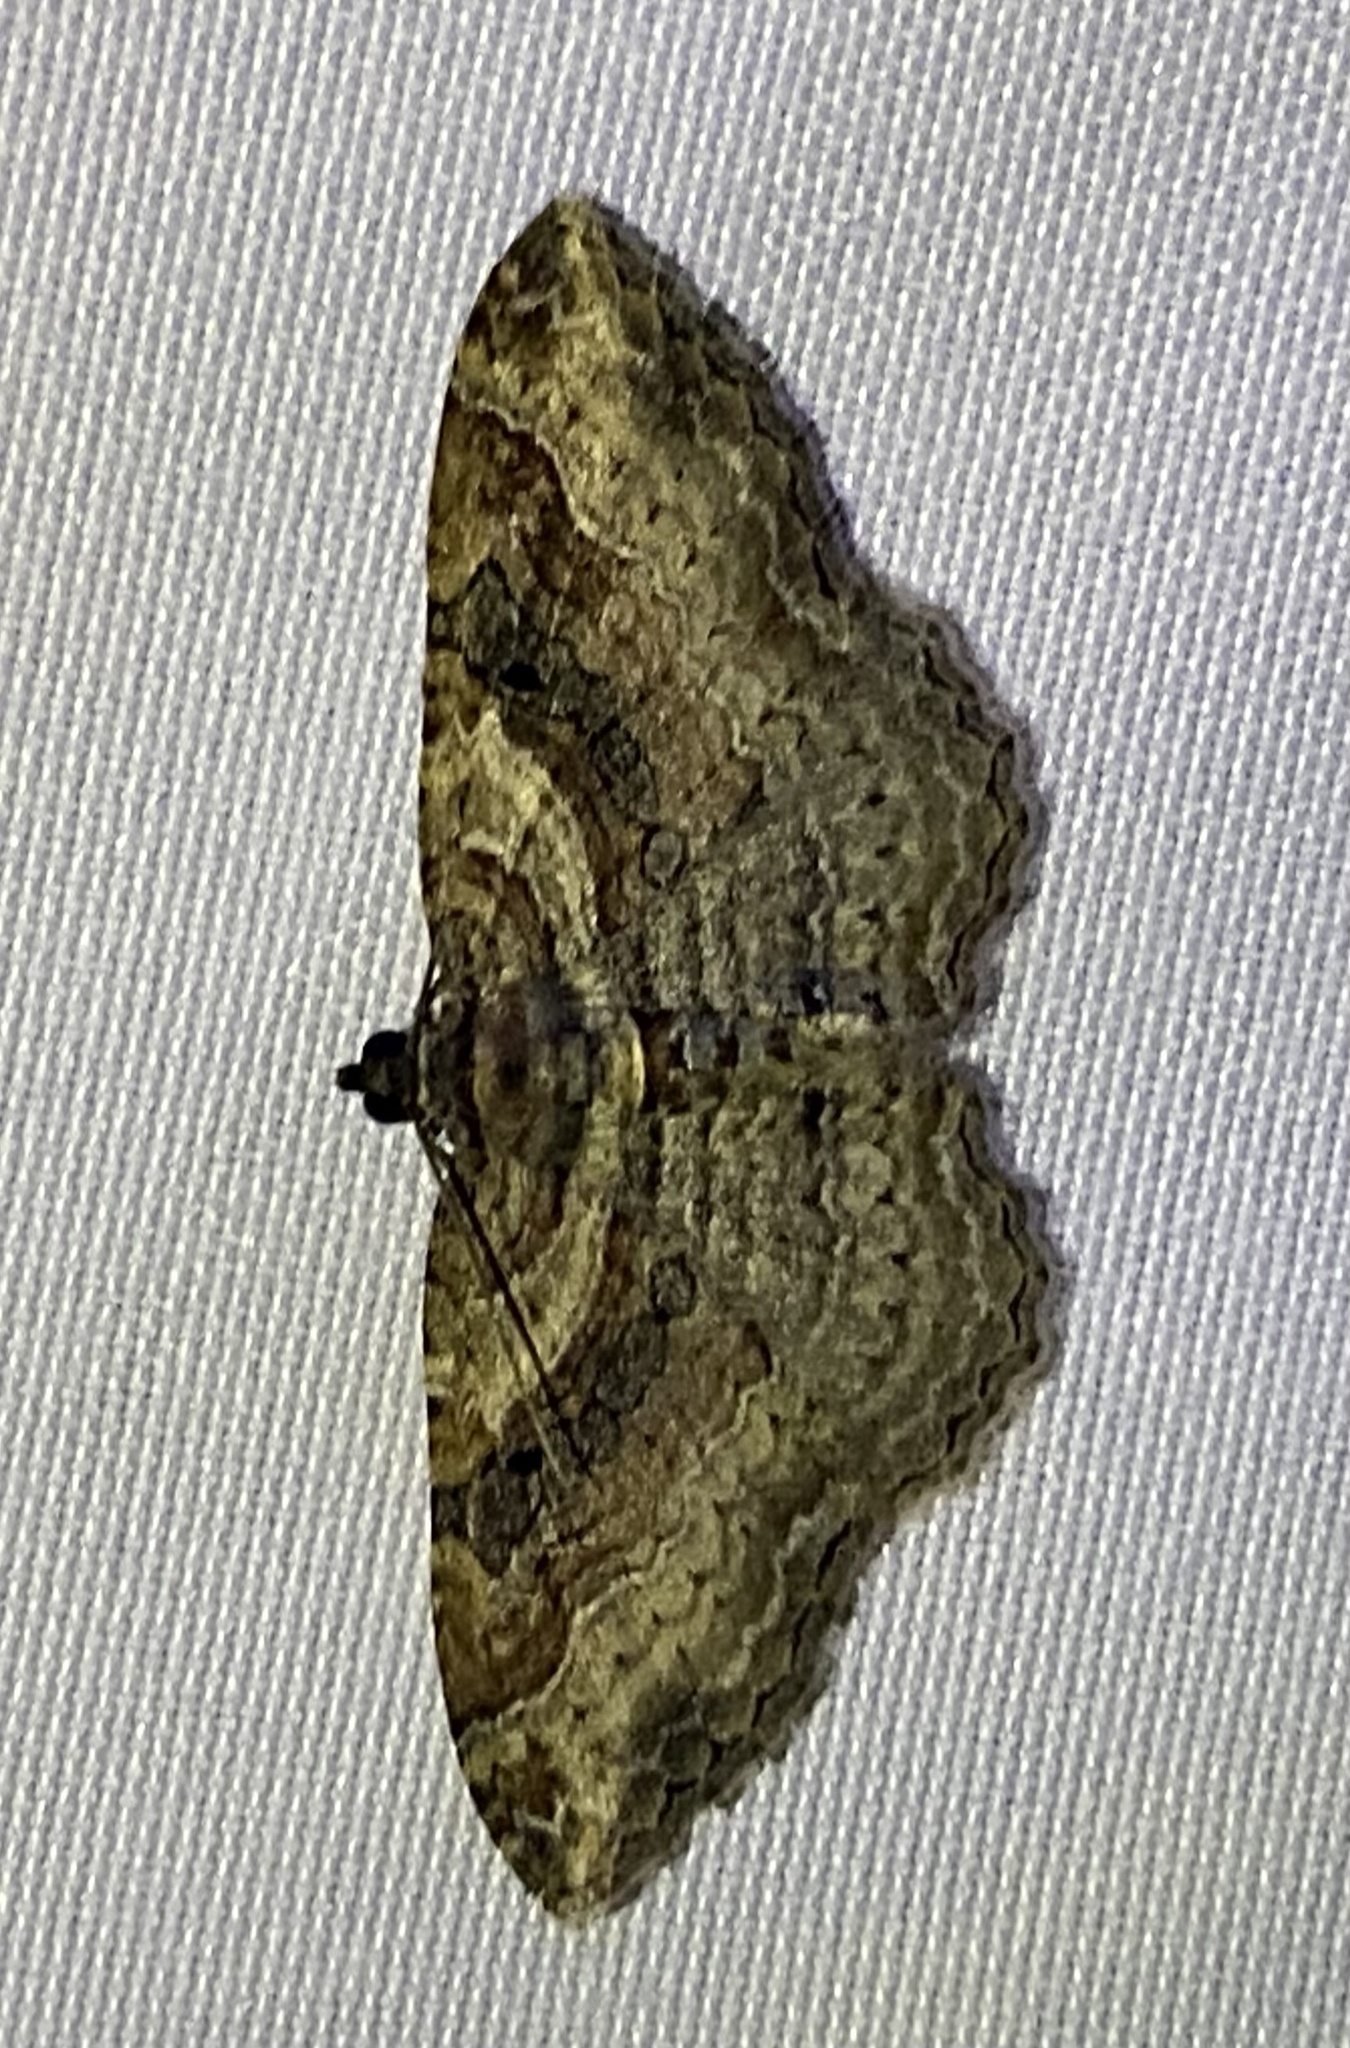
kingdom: Animalia
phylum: Arthropoda
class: Insecta
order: Lepidoptera
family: Geometridae
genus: Costaconvexa
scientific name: Costaconvexa centrostrigaria
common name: Bent-line carpet
